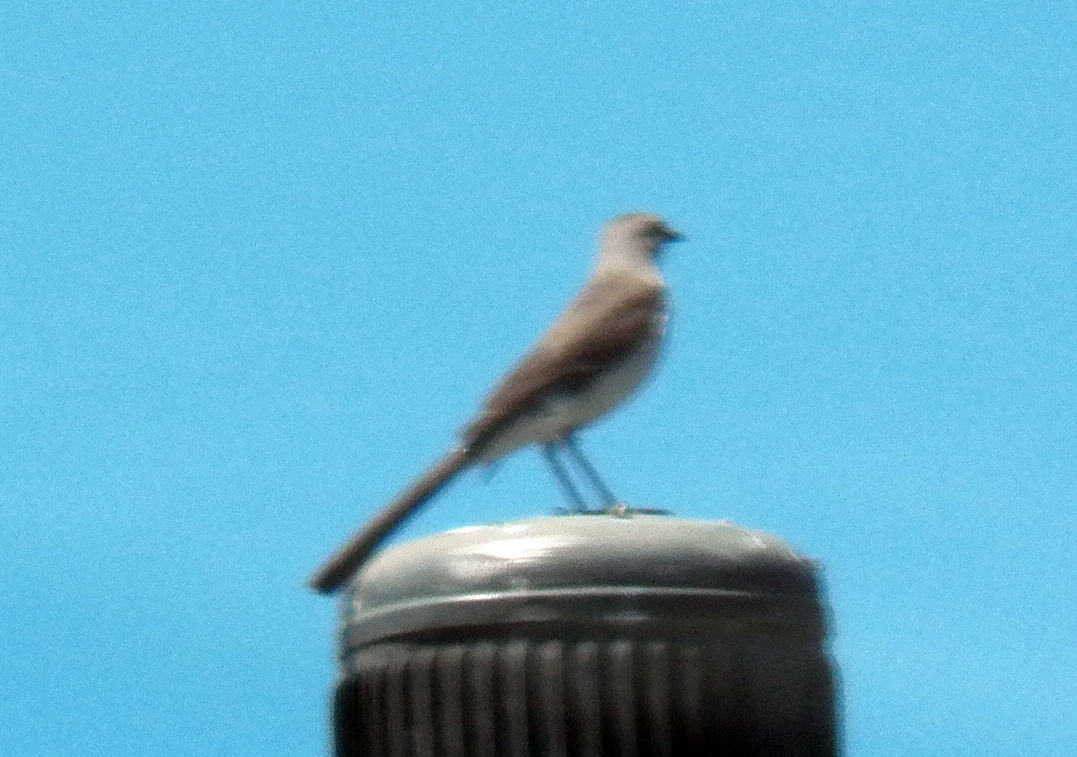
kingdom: Animalia
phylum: Chordata
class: Aves
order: Passeriformes
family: Mimidae
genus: Mimus
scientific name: Mimus polyglottos
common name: Northern mockingbird
